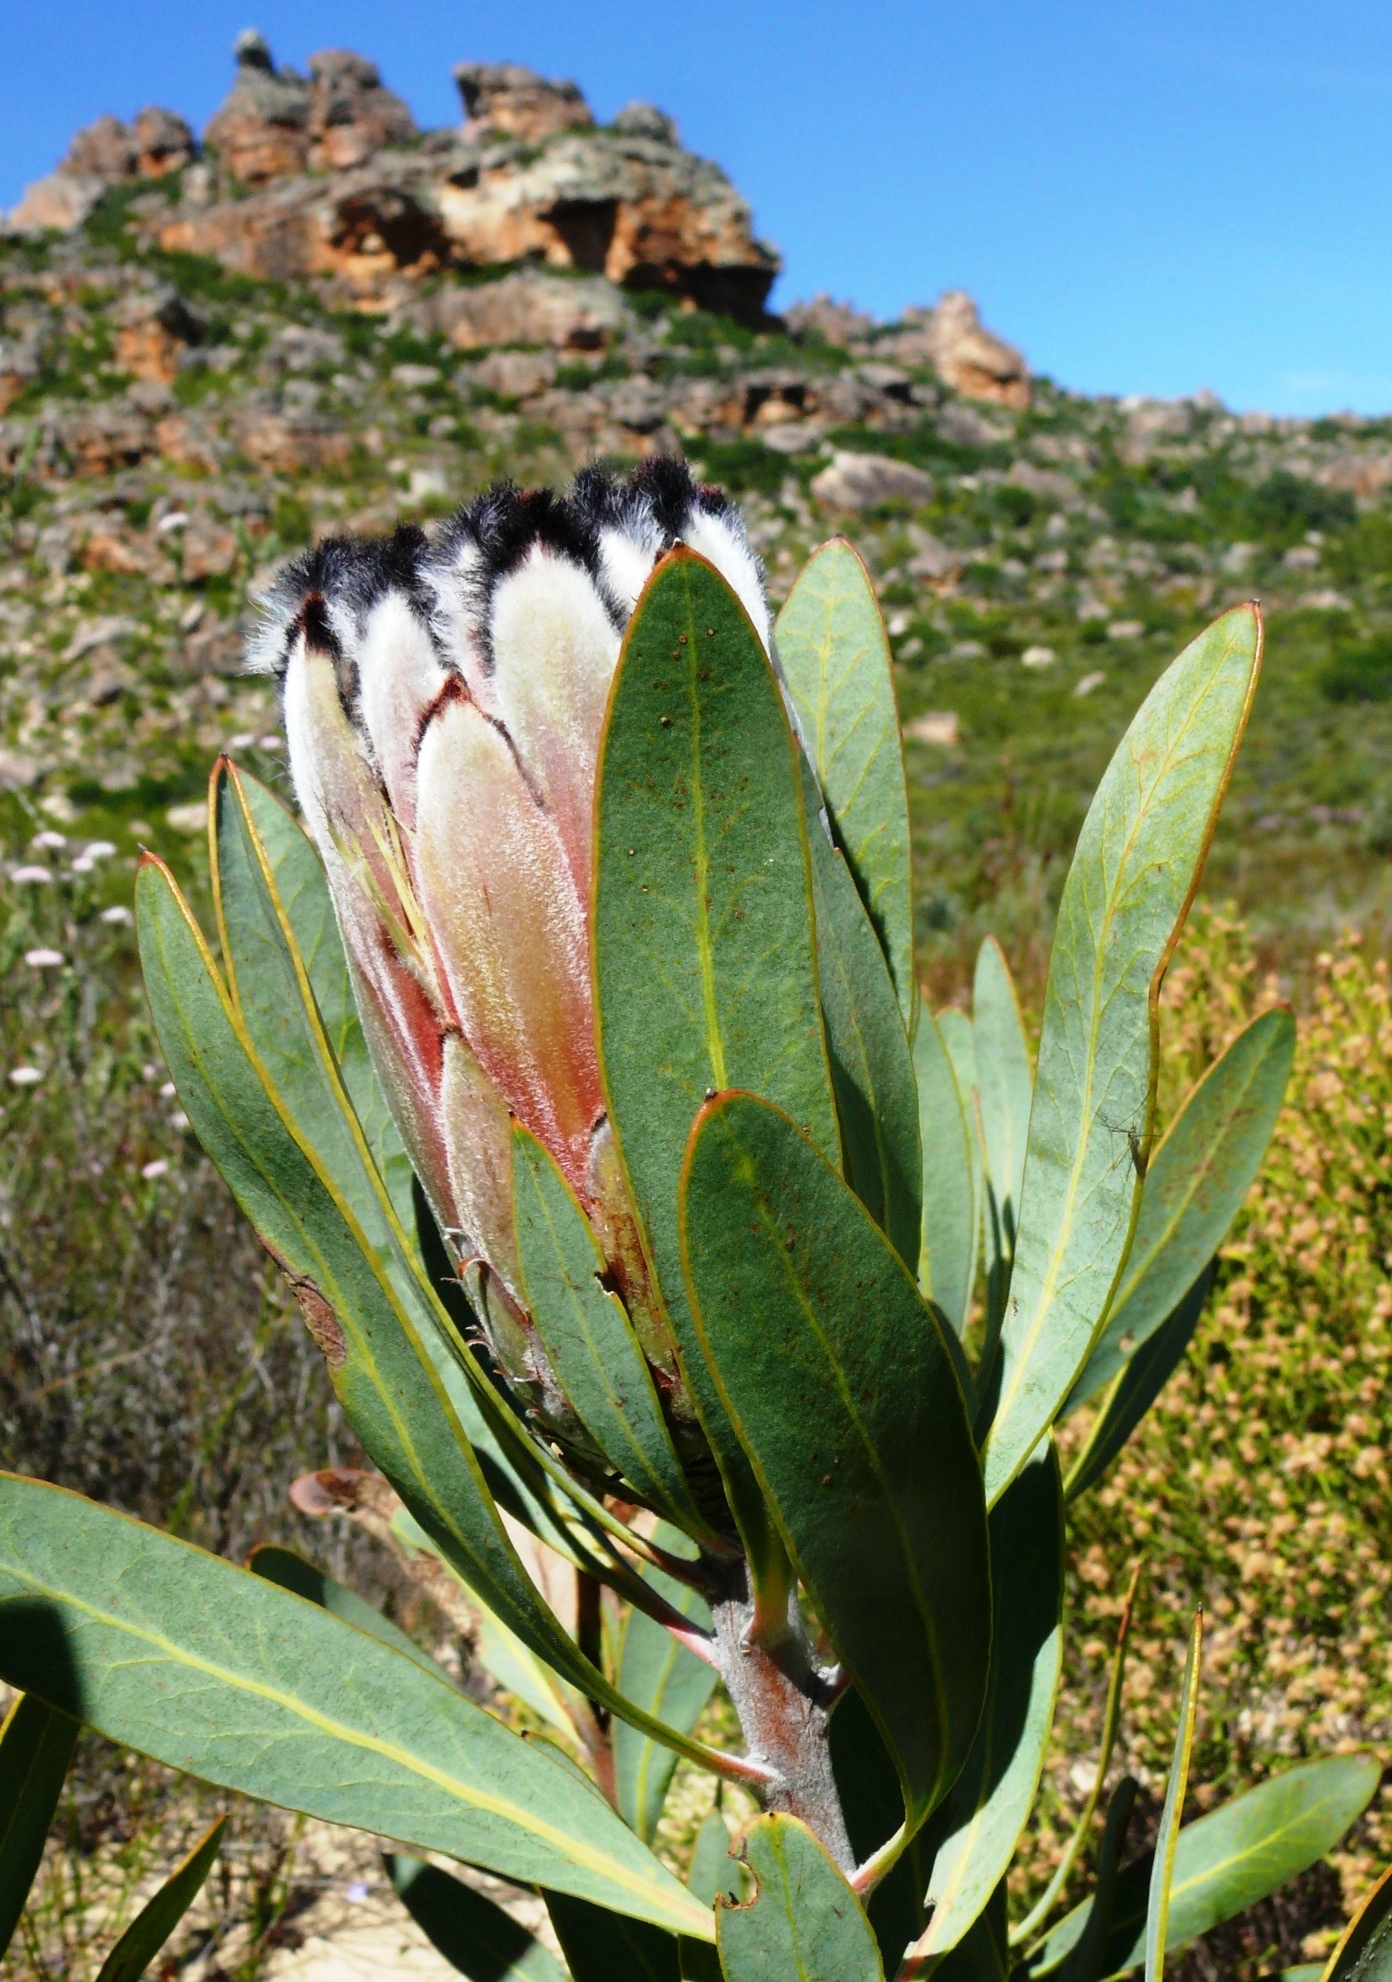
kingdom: Plantae
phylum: Tracheophyta
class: Magnoliopsida
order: Proteales
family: Proteaceae
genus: Protea
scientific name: Protea laurifolia
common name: Grey-leaf sugarbsh
